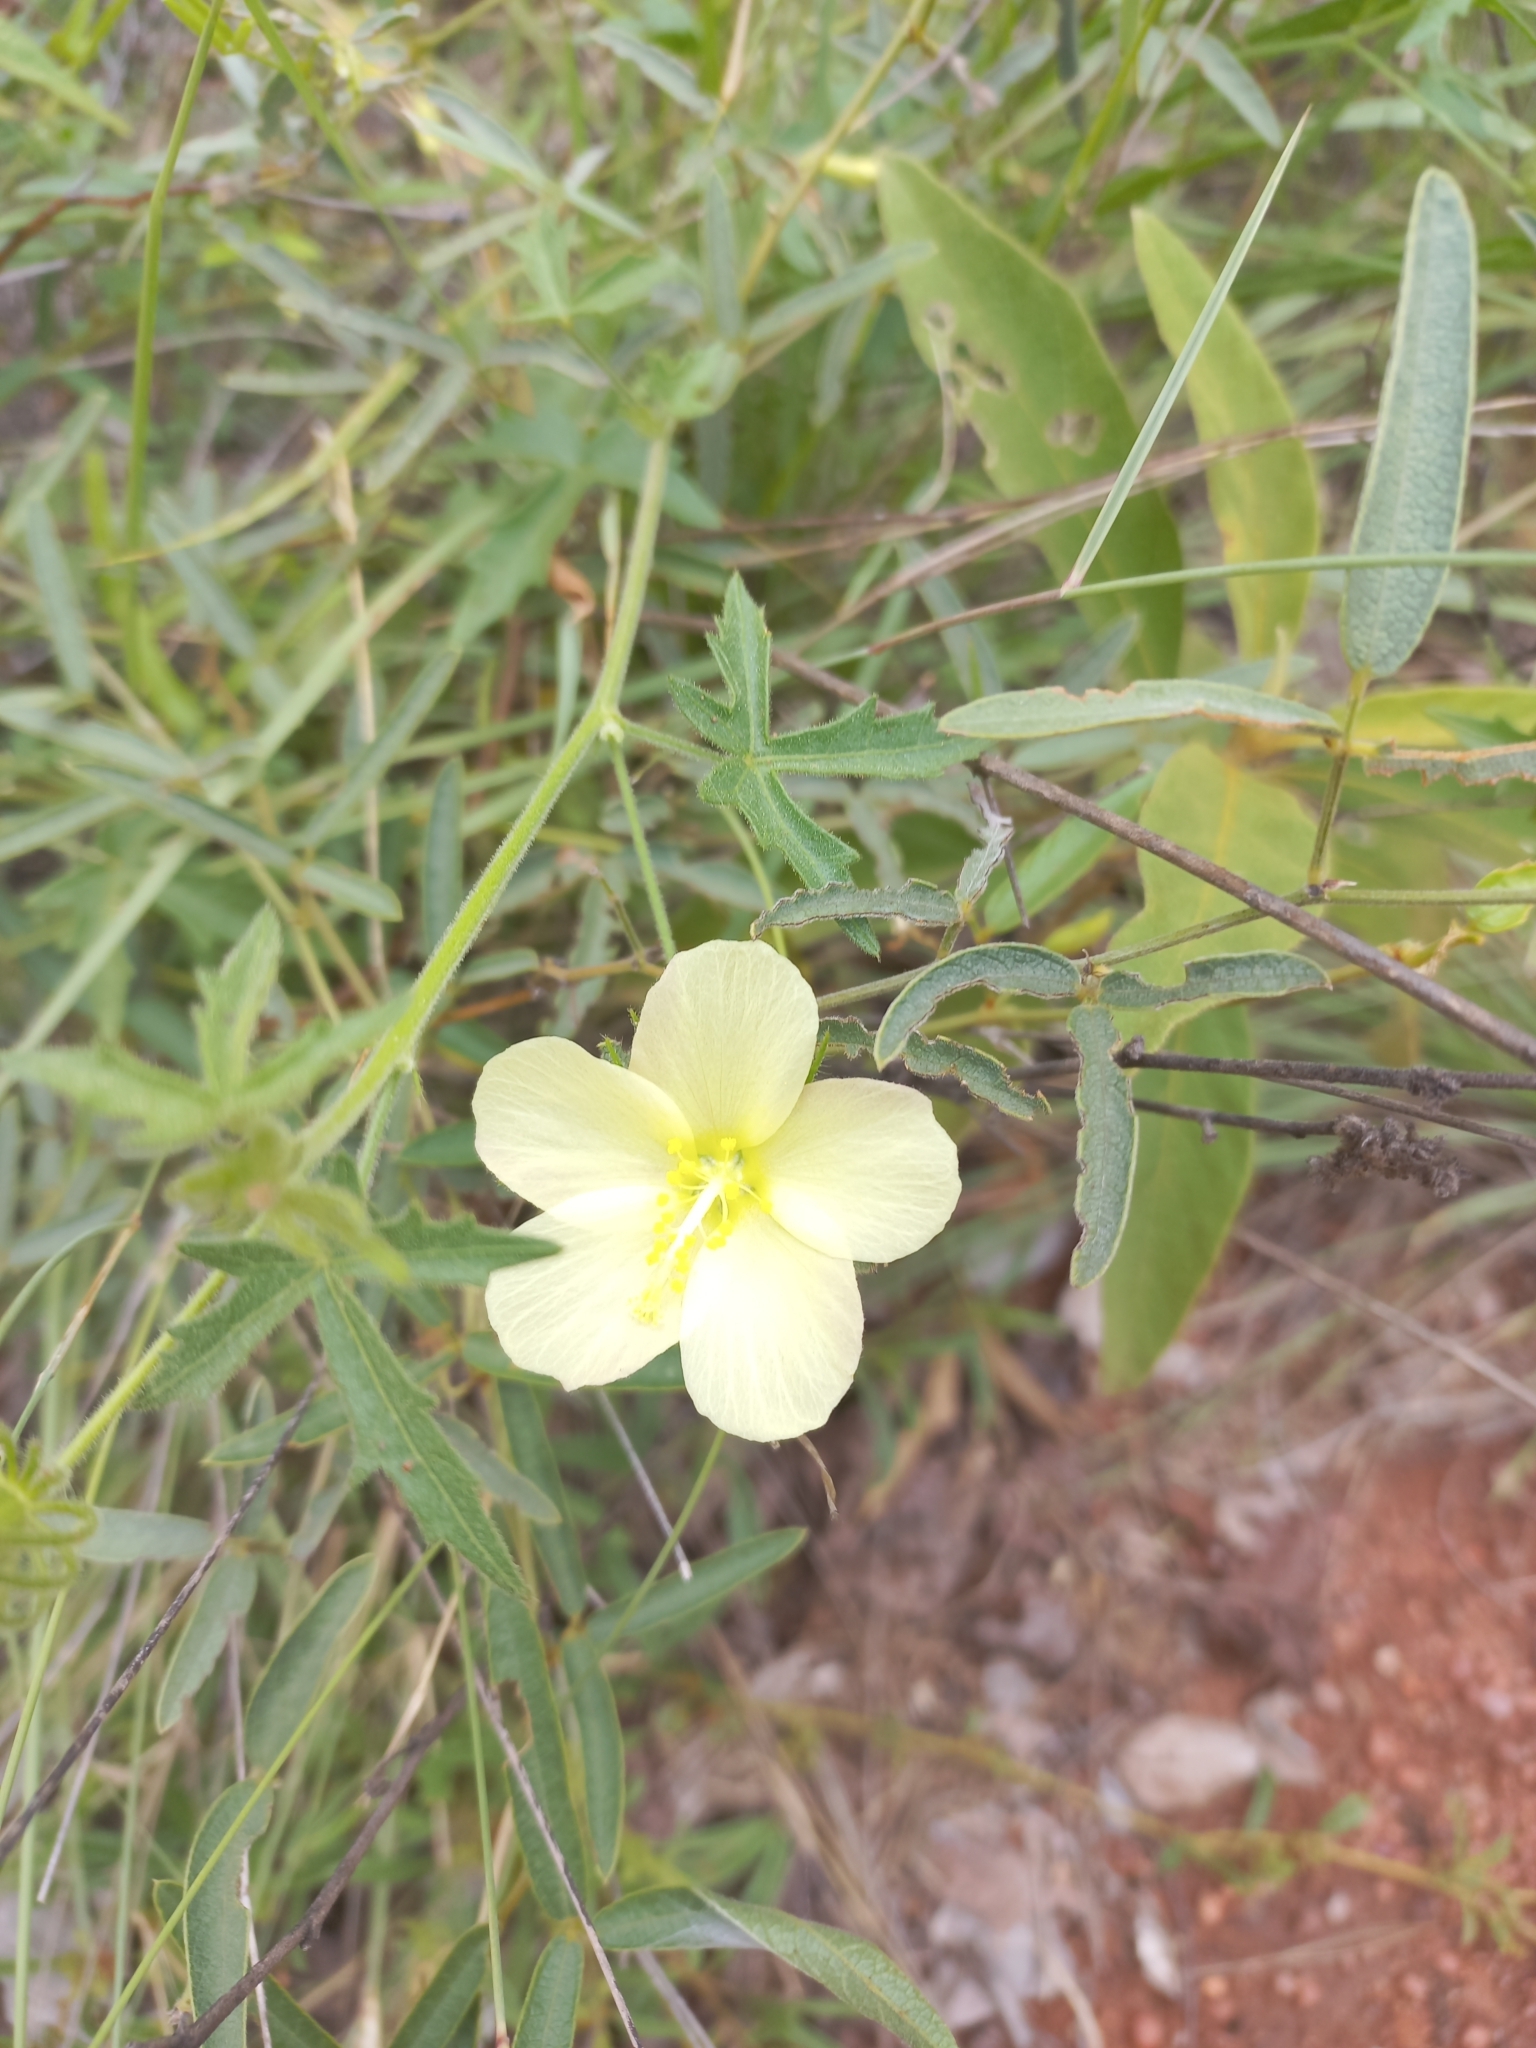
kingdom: Plantae
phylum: Tracheophyta
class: Magnoliopsida
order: Malvales
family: Malvaceae
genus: Pavonia
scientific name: Pavonia transvaalensis
